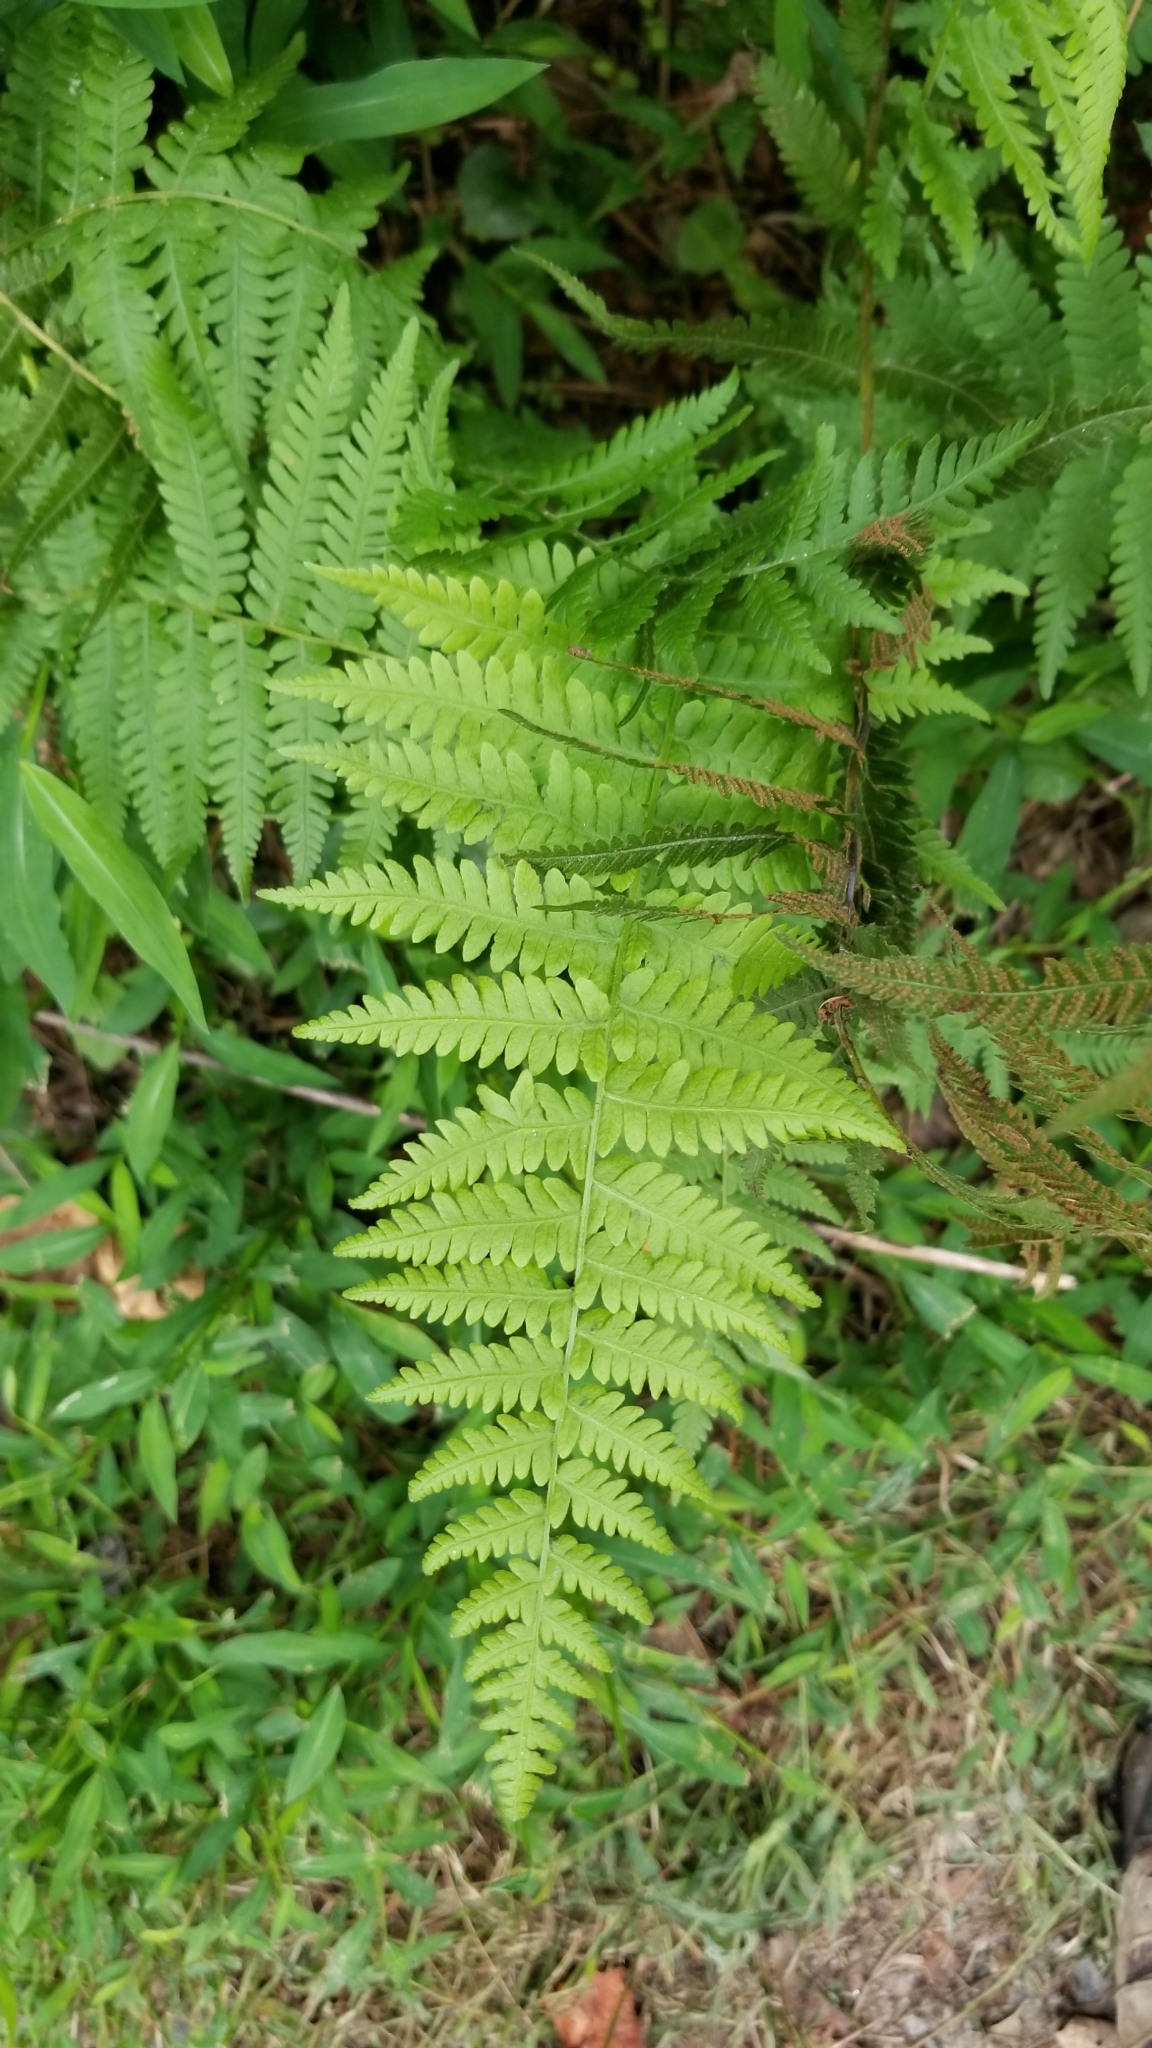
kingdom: Plantae
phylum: Tracheophyta
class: Polypodiopsida
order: Polypodiales
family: Thelypteridaceae
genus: Amauropelta
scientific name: Amauropelta noveboracensis
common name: New york fern
